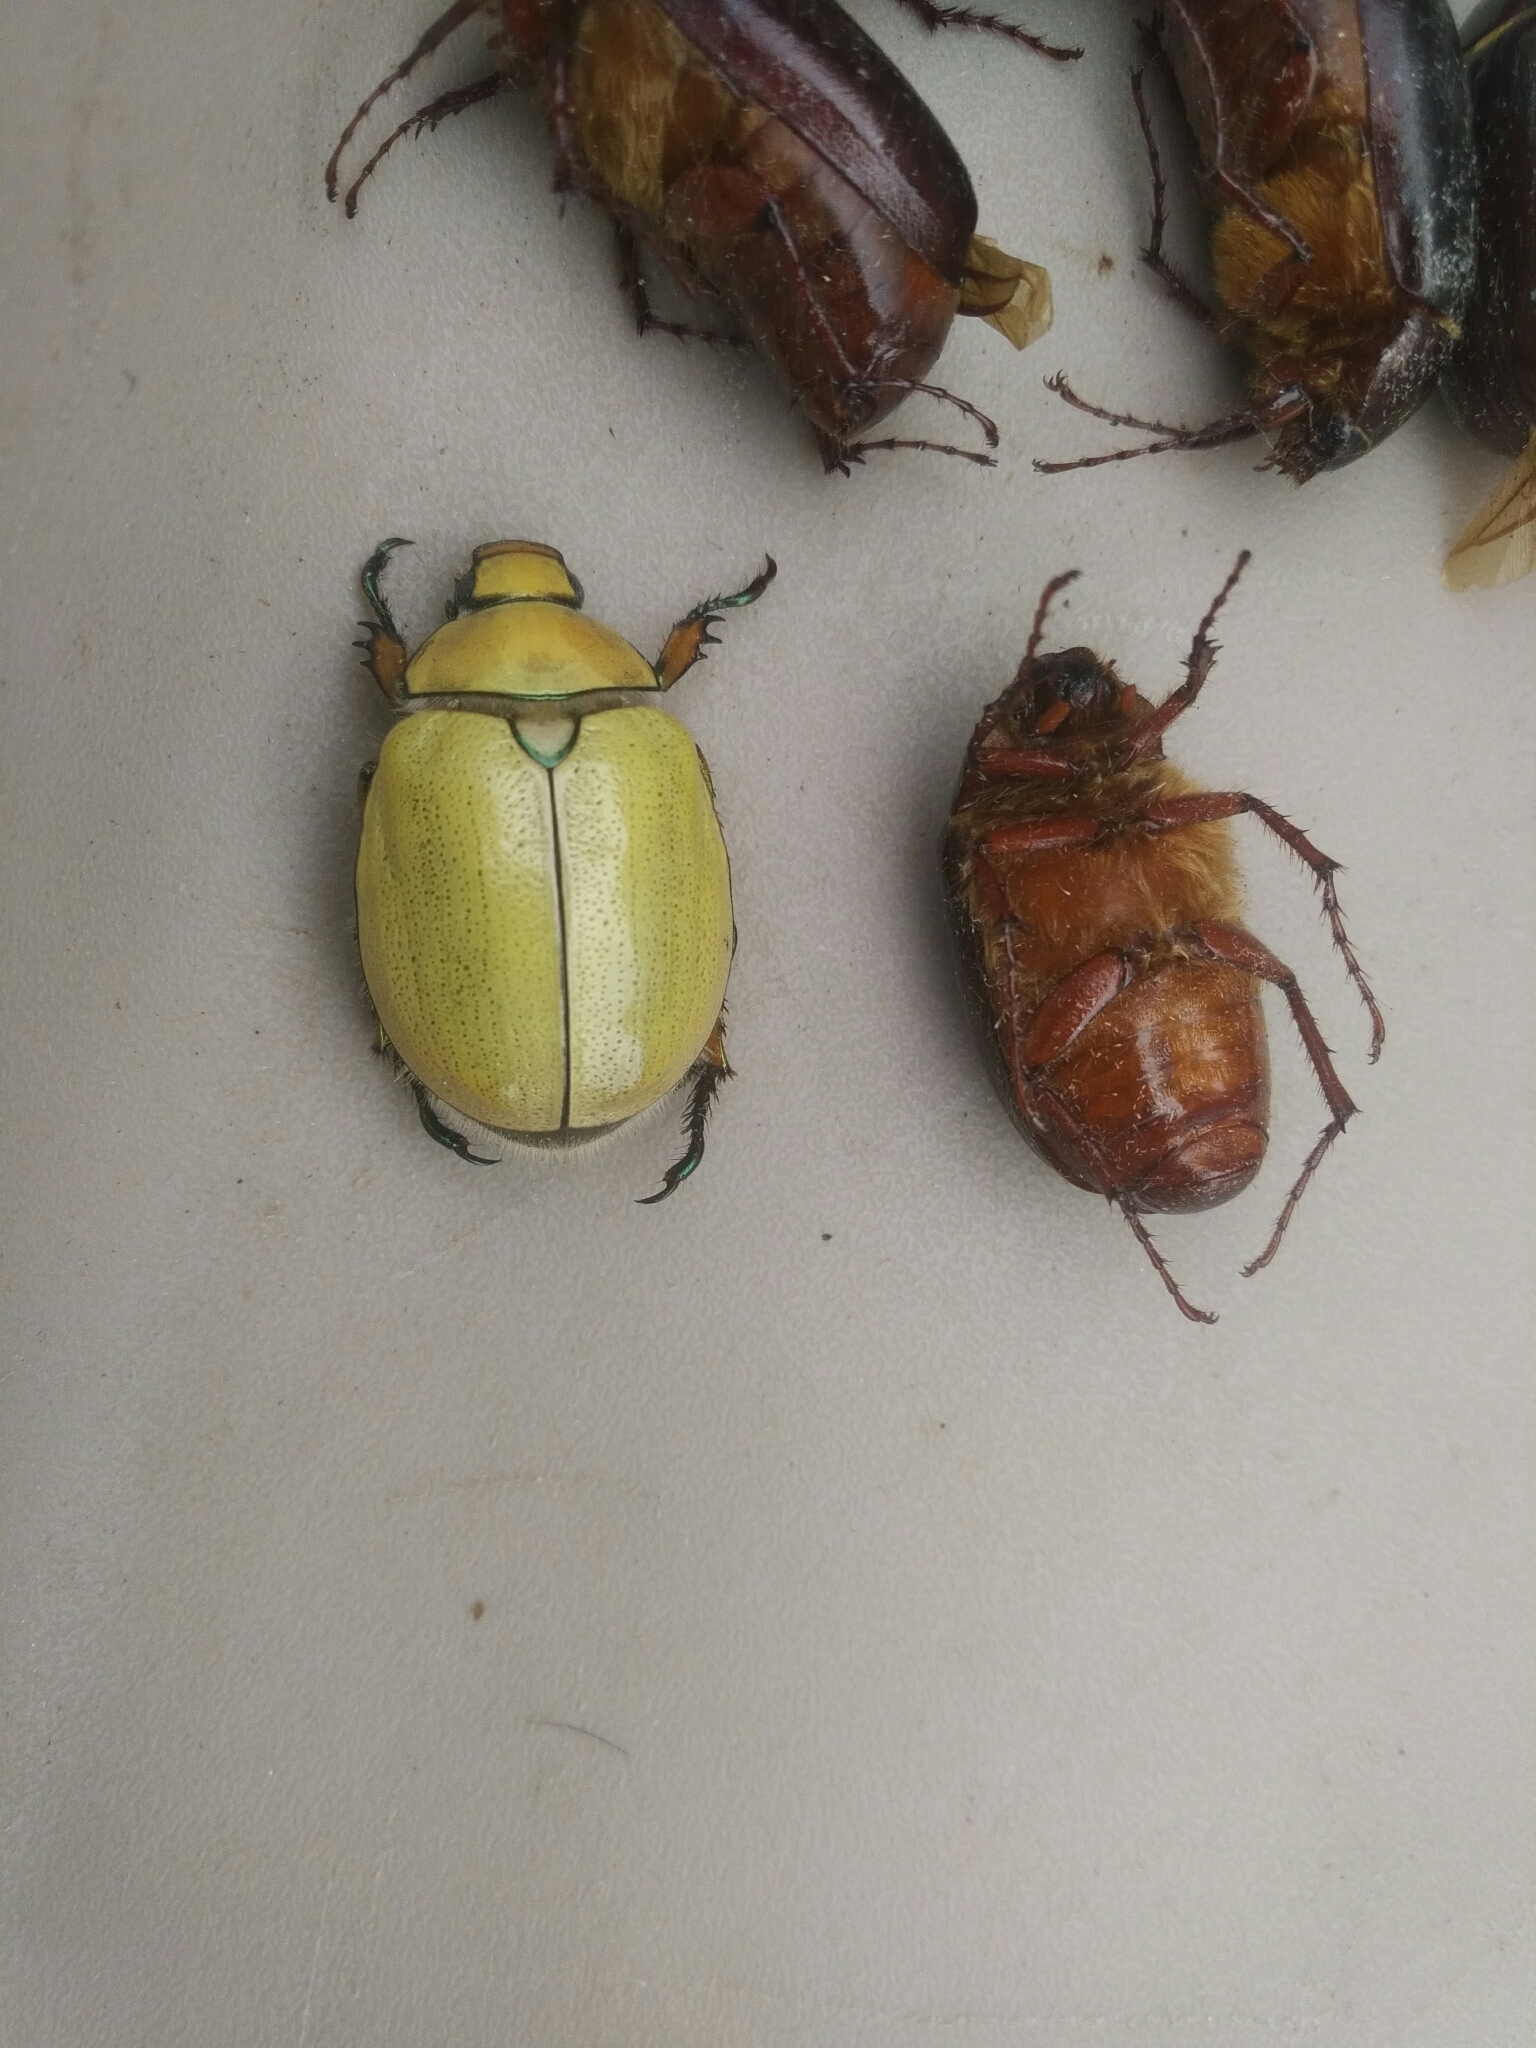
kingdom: Animalia
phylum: Arthropoda
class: Insecta
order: Coleoptera
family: Scarabaeidae
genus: Cotalpa
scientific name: Cotalpa lanigera
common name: Goldsmith beetle
